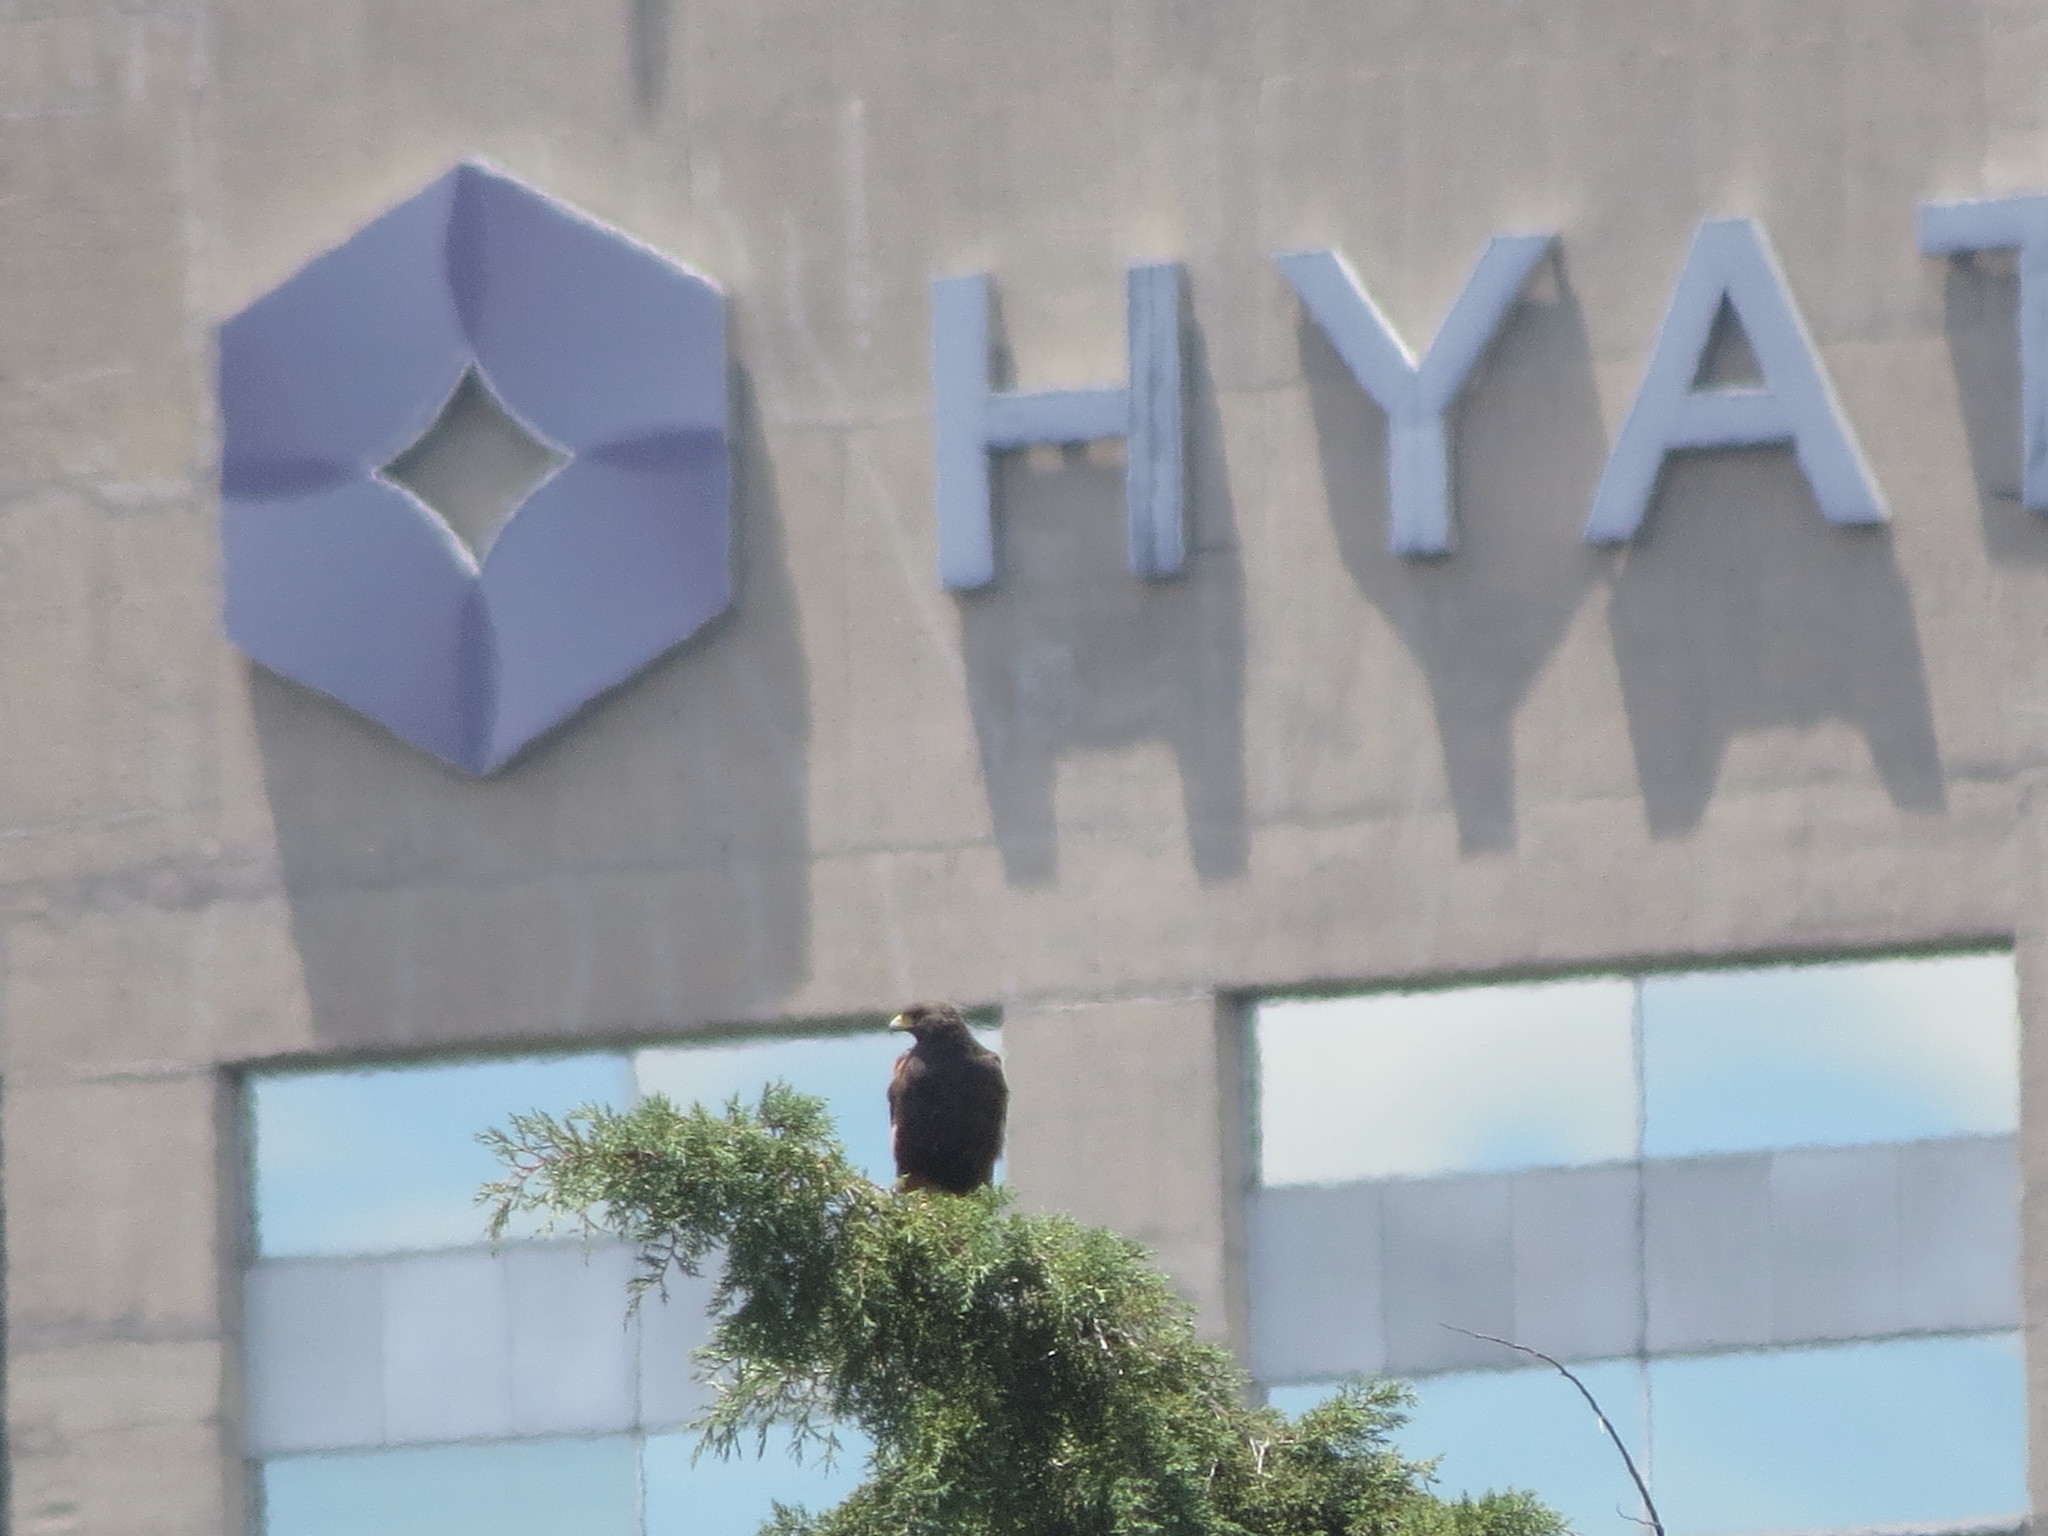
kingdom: Animalia
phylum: Chordata
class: Aves
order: Accipitriformes
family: Accipitridae
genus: Parabuteo
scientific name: Parabuteo unicinctus
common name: Harris's hawk
